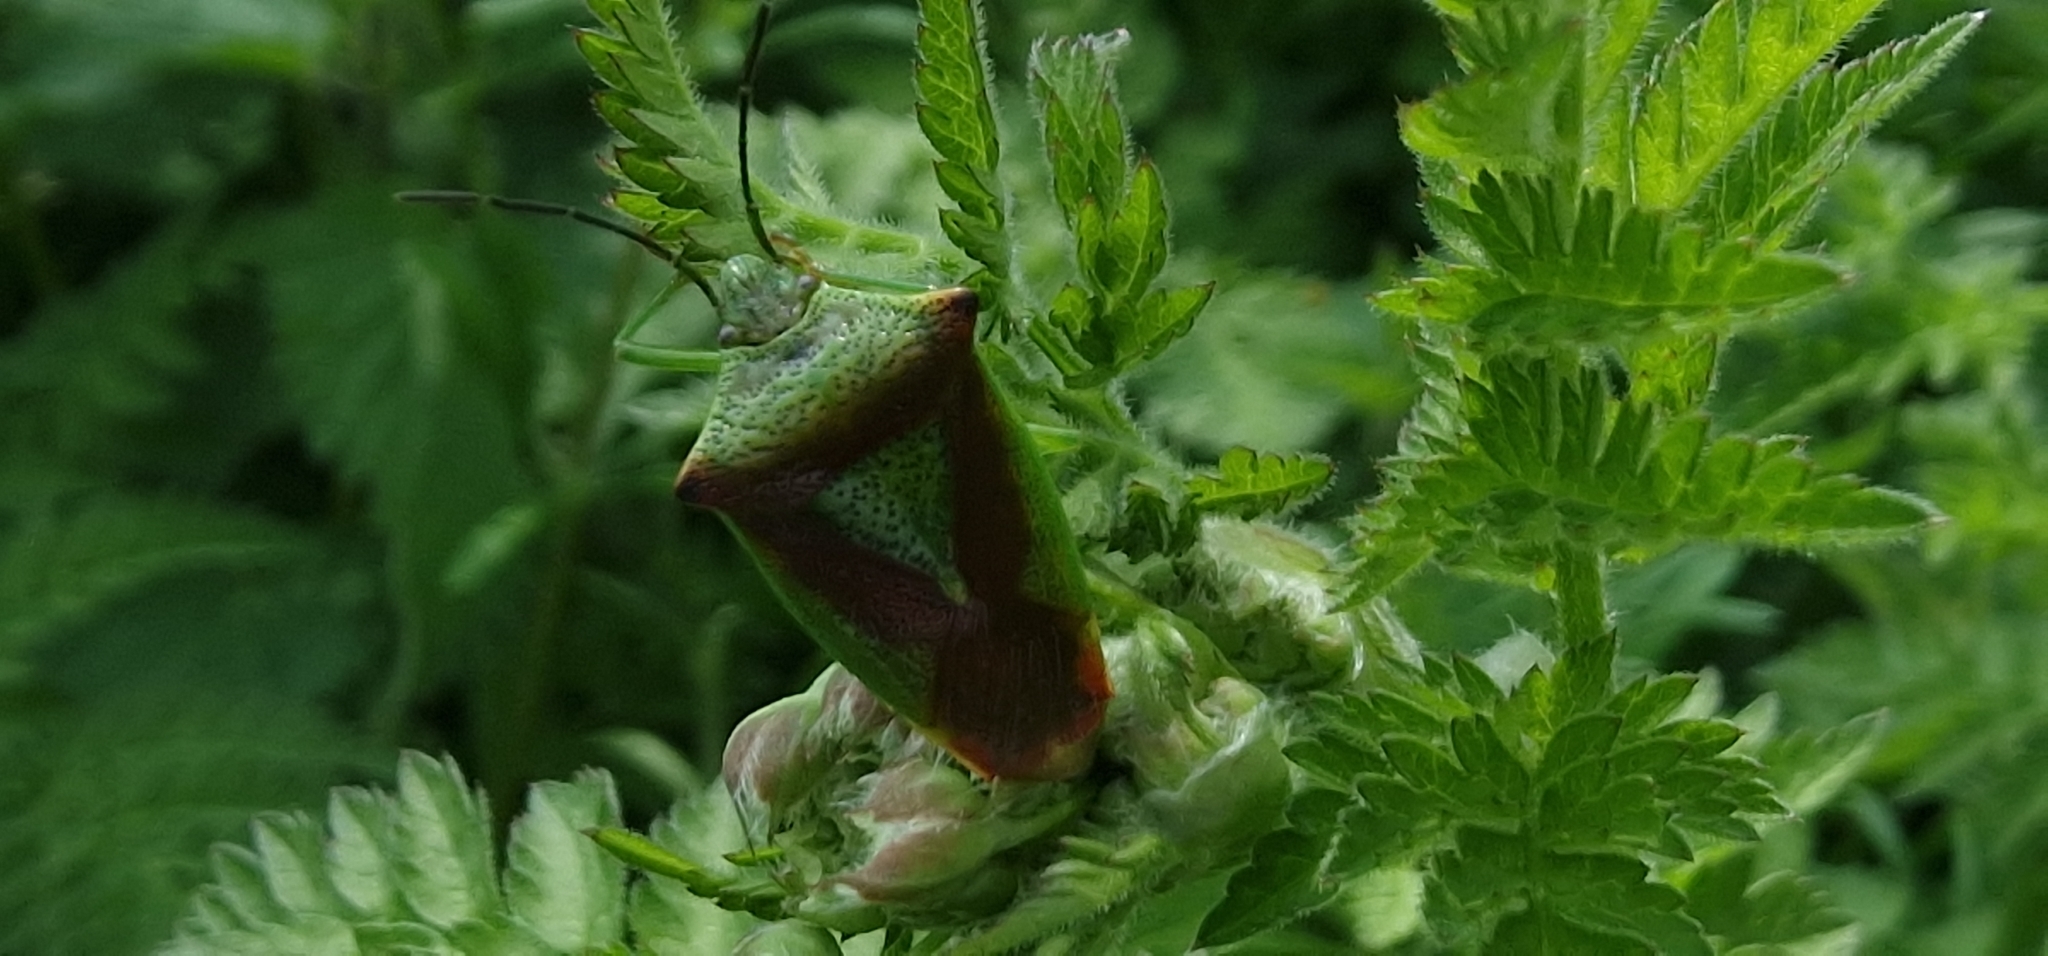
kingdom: Animalia
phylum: Arthropoda
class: Insecta
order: Hemiptera
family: Acanthosomatidae
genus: Acanthosoma
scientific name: Acanthosoma haemorrhoidale
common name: Hawthorn shieldbug
